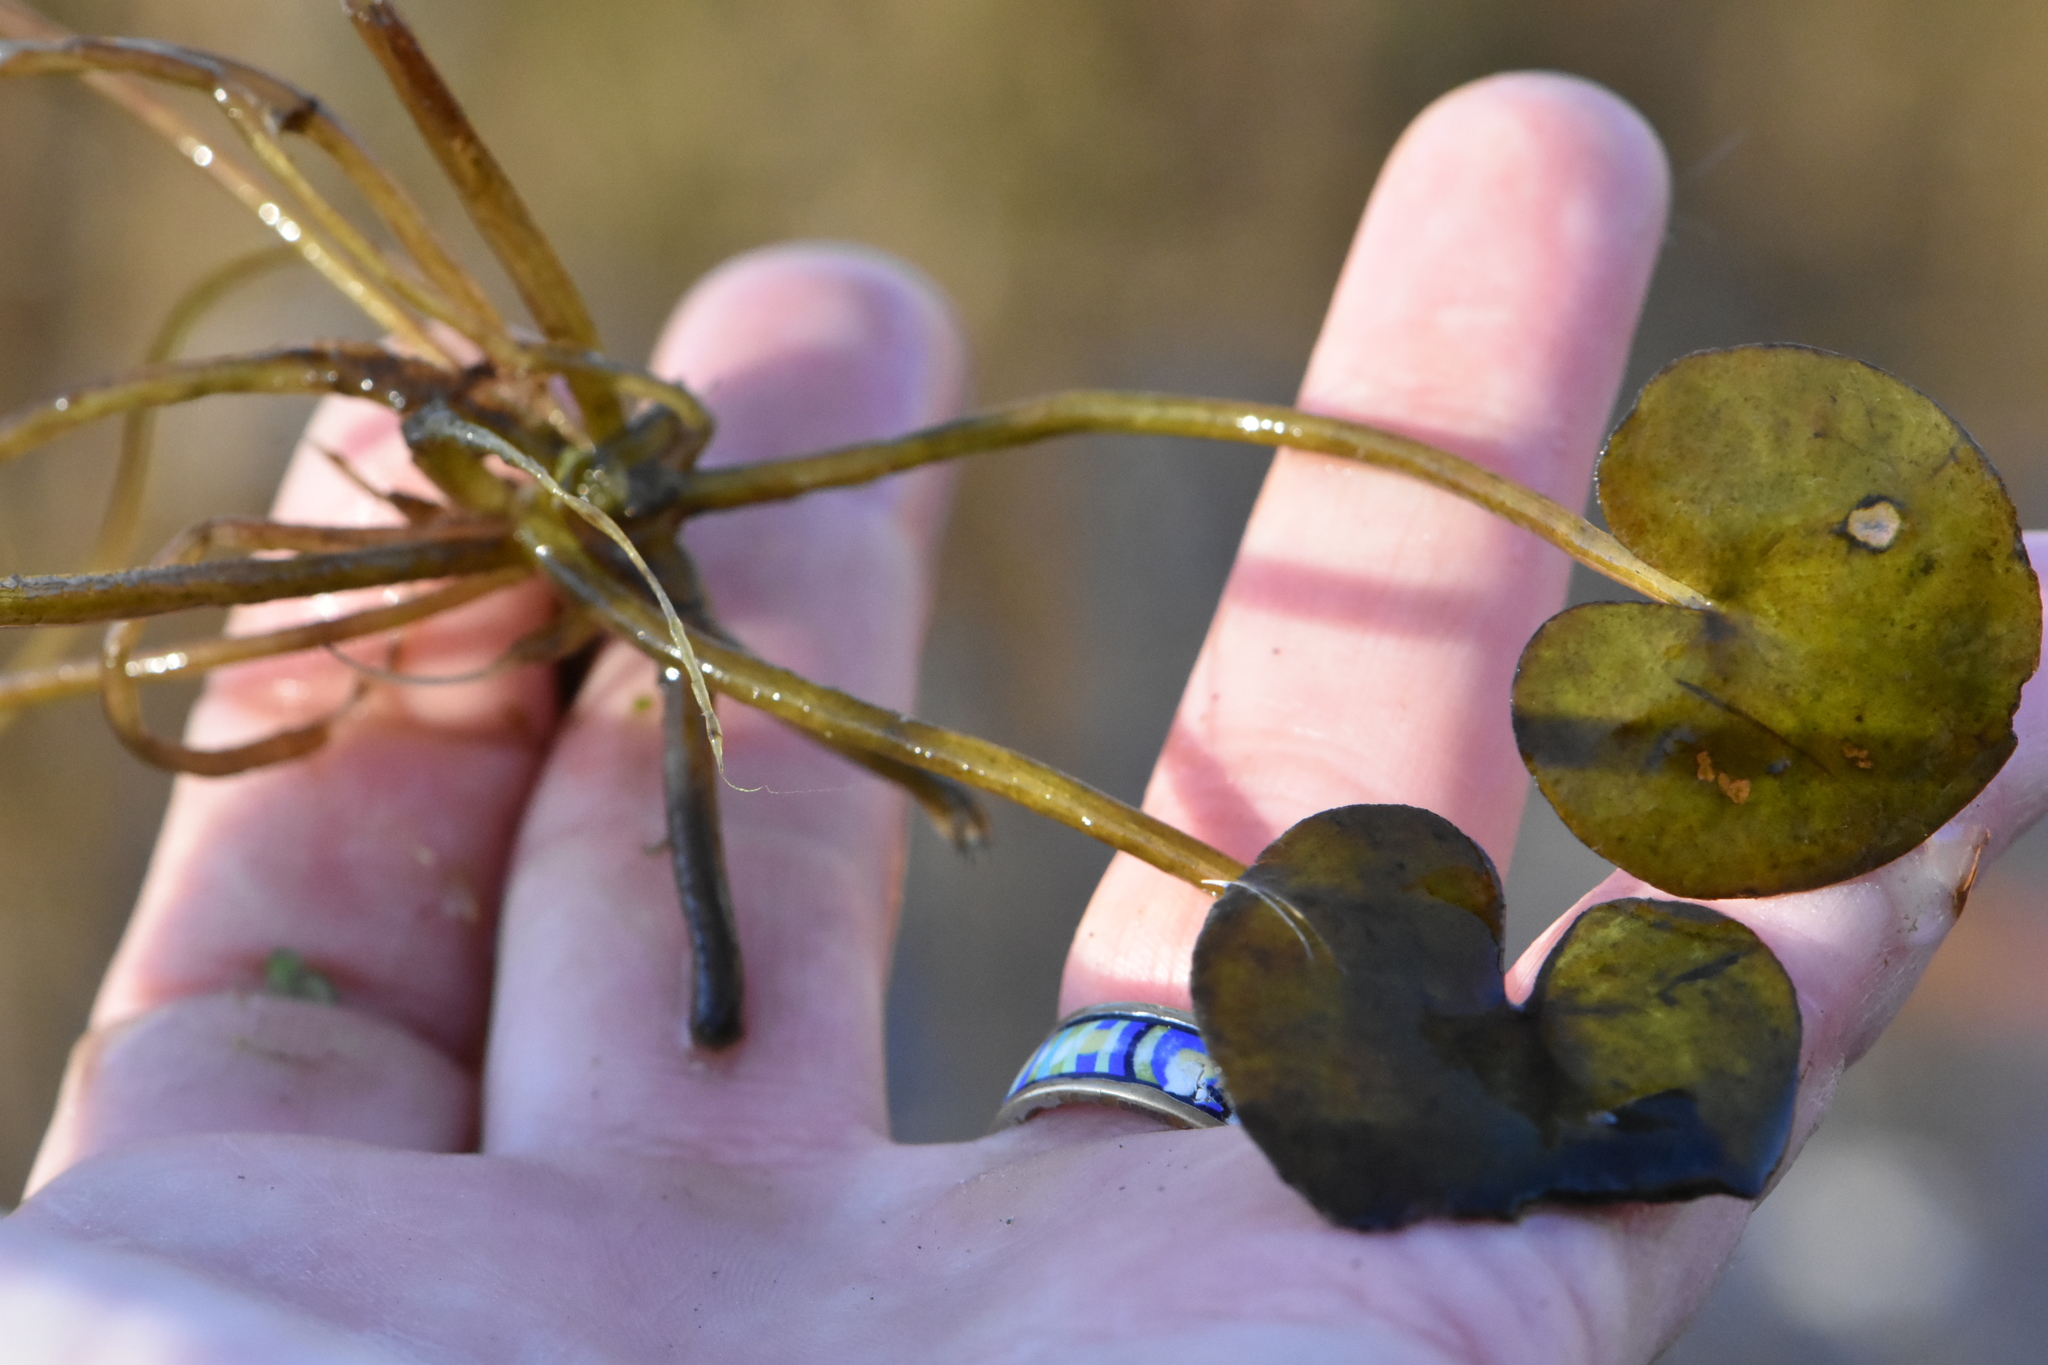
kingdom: Plantae
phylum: Tracheophyta
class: Liliopsida
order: Alismatales
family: Hydrocharitaceae
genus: Hydrocharis
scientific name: Hydrocharis morsus-ranae
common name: Frogbit
